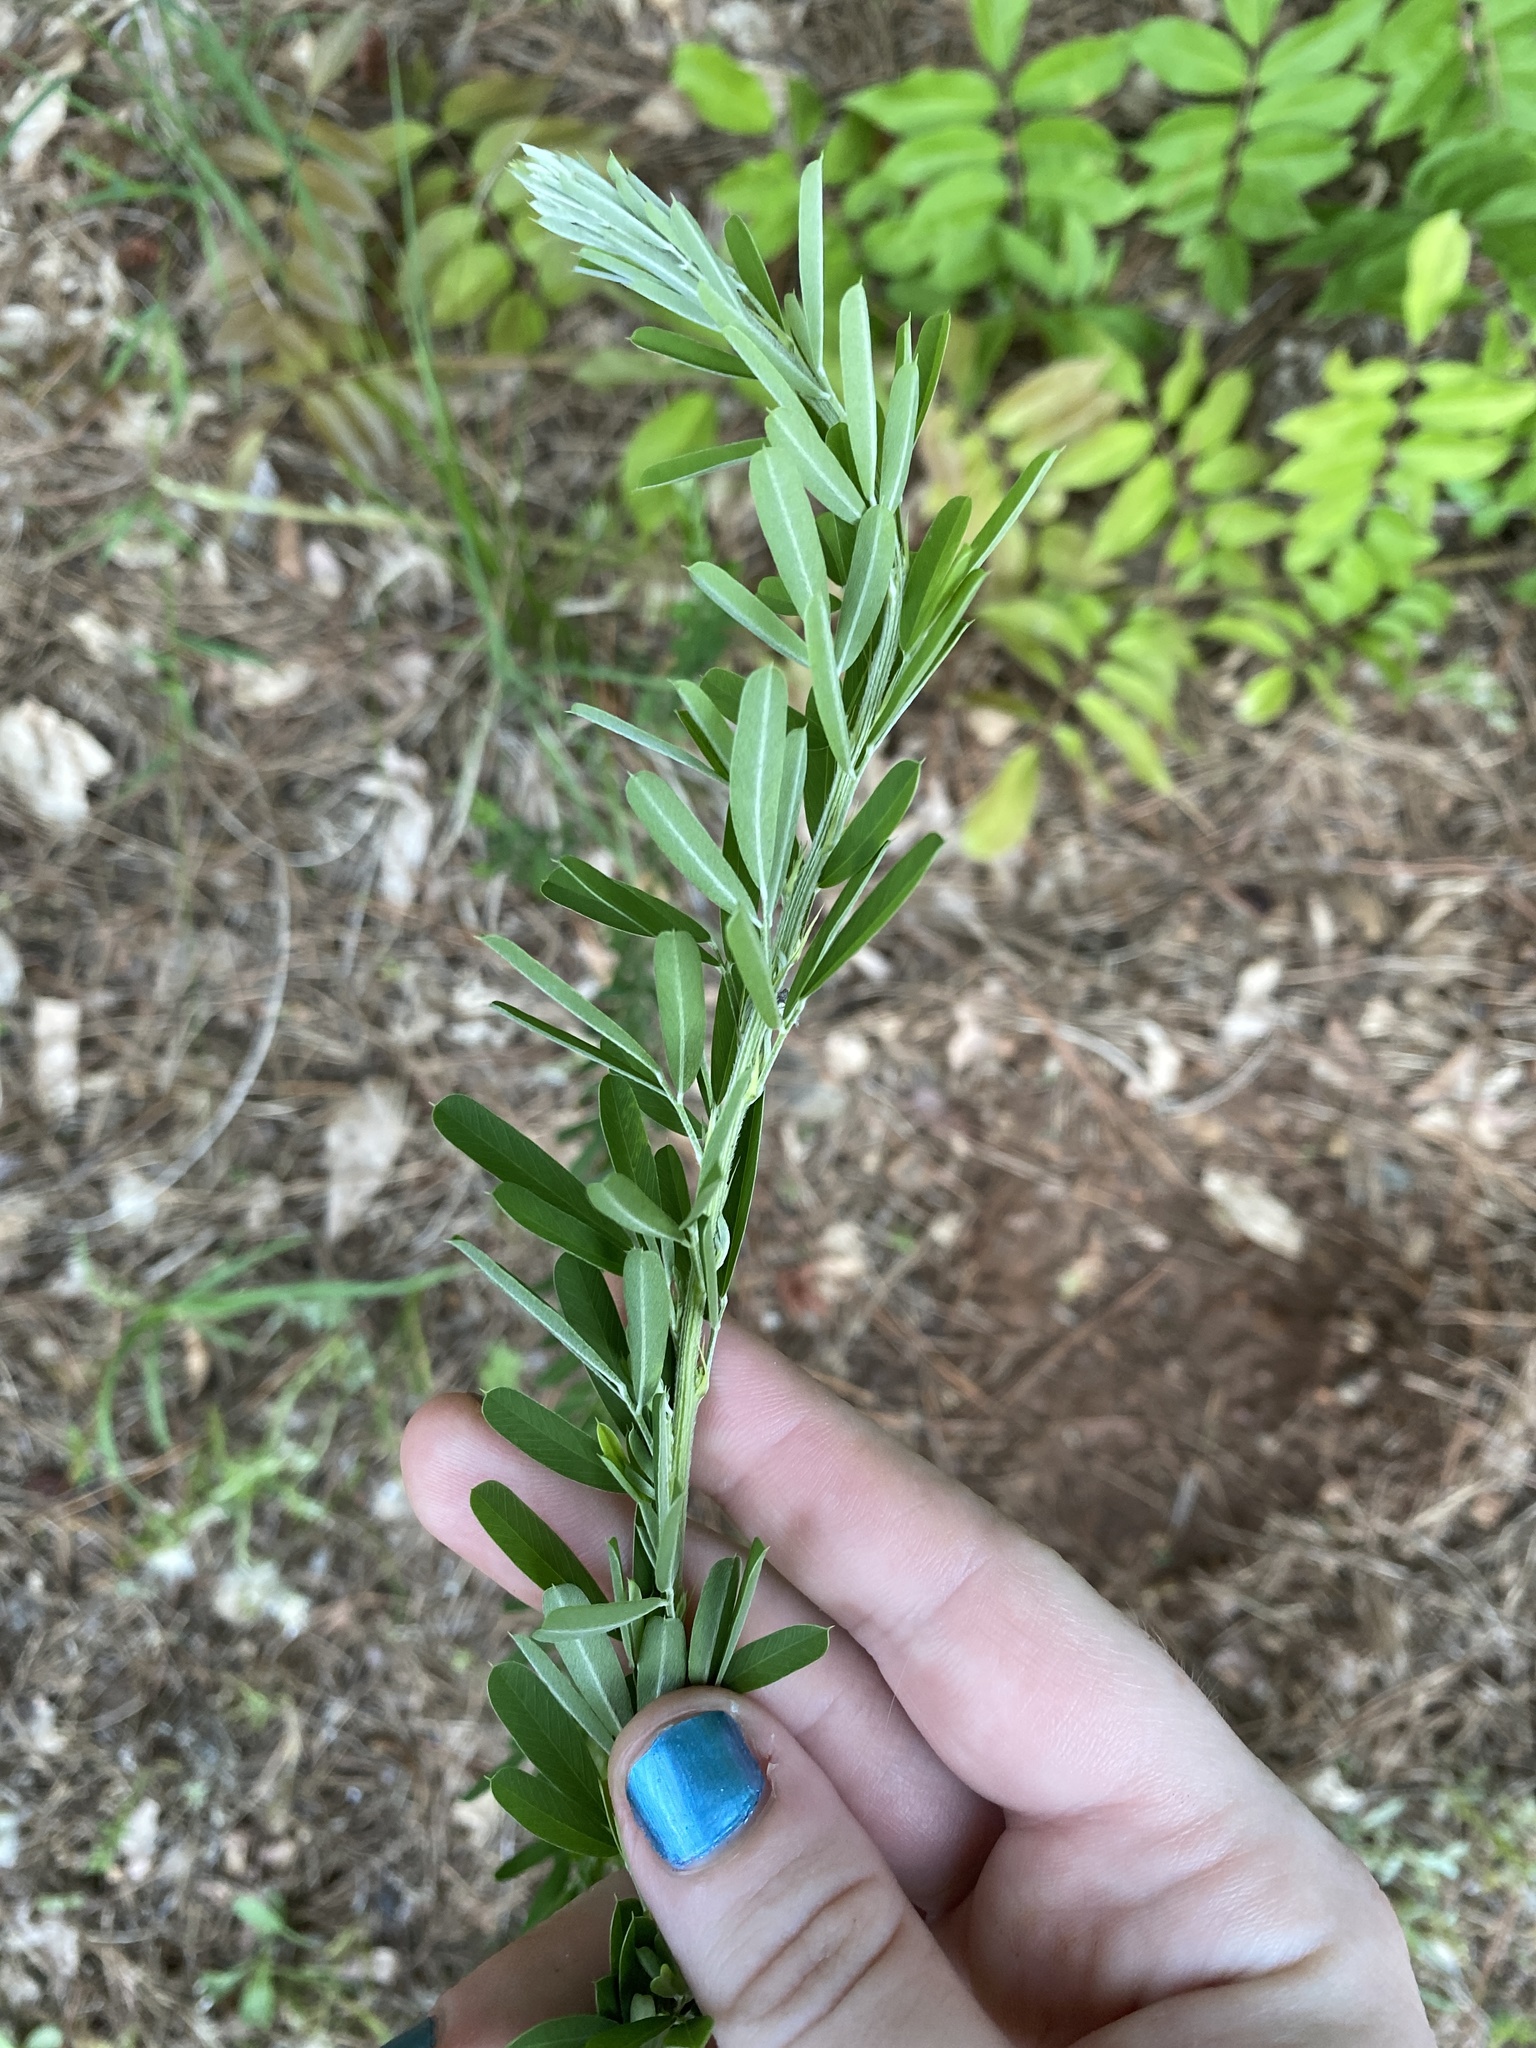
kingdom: Plantae
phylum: Tracheophyta
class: Magnoliopsida
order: Fabales
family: Fabaceae
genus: Lespedeza
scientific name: Lespedeza cuneata
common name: Chinese bush-clover
